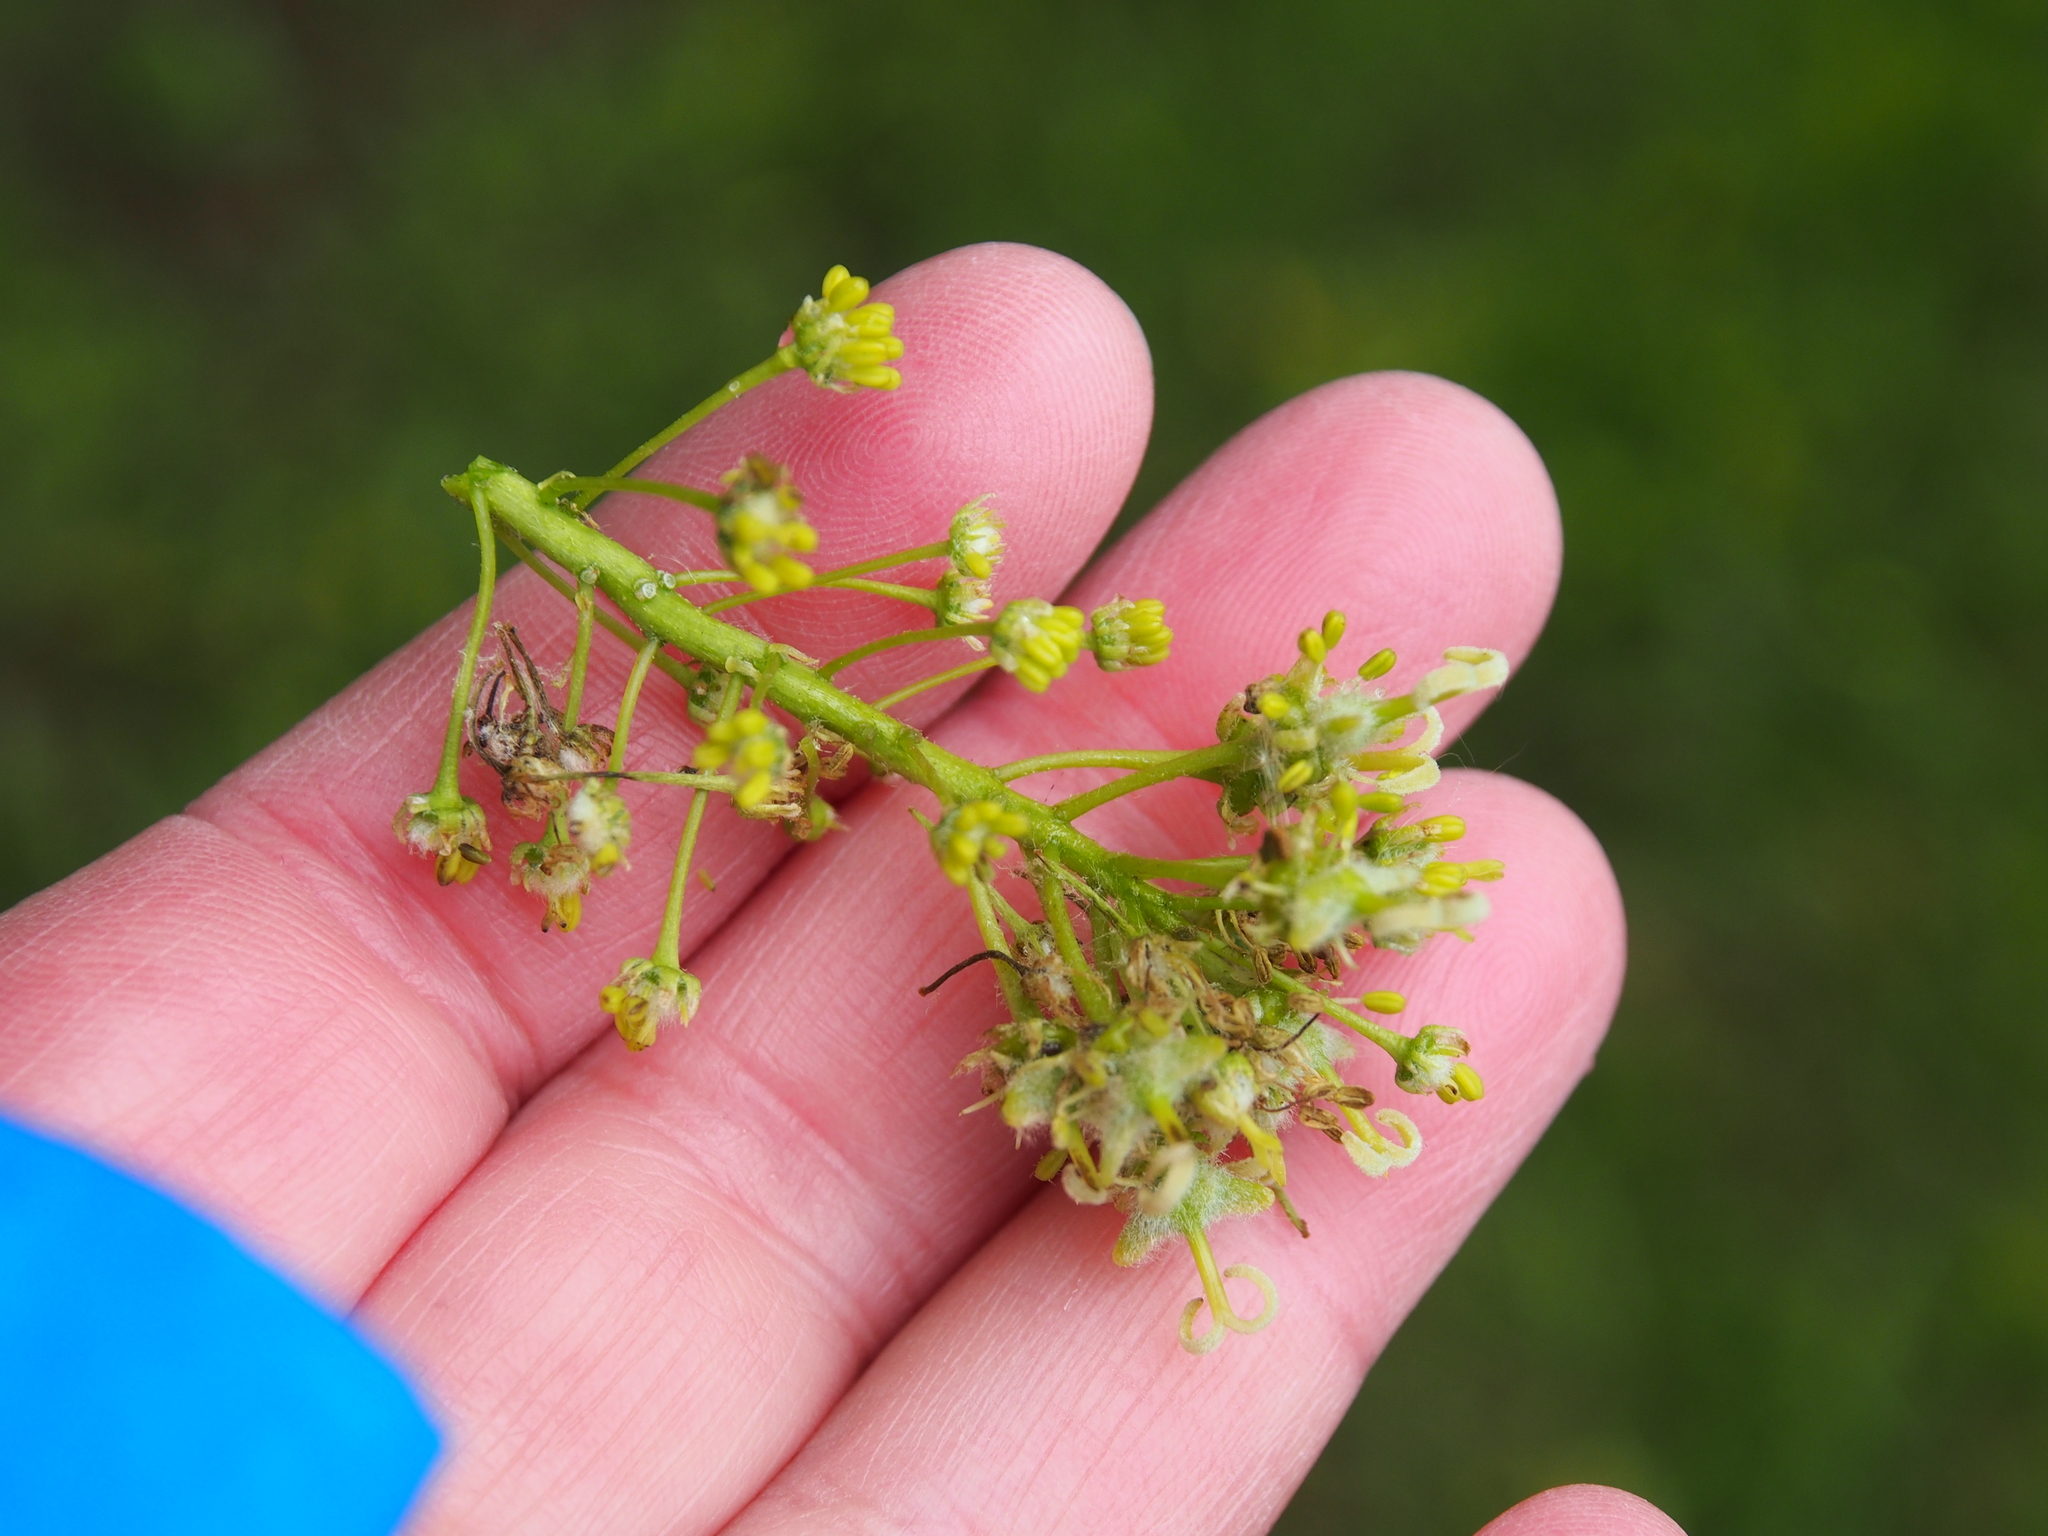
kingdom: Plantae
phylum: Tracheophyta
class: Magnoliopsida
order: Sapindales
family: Sapindaceae
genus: Acer
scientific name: Acer pseudoplatanus
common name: Sycamore
